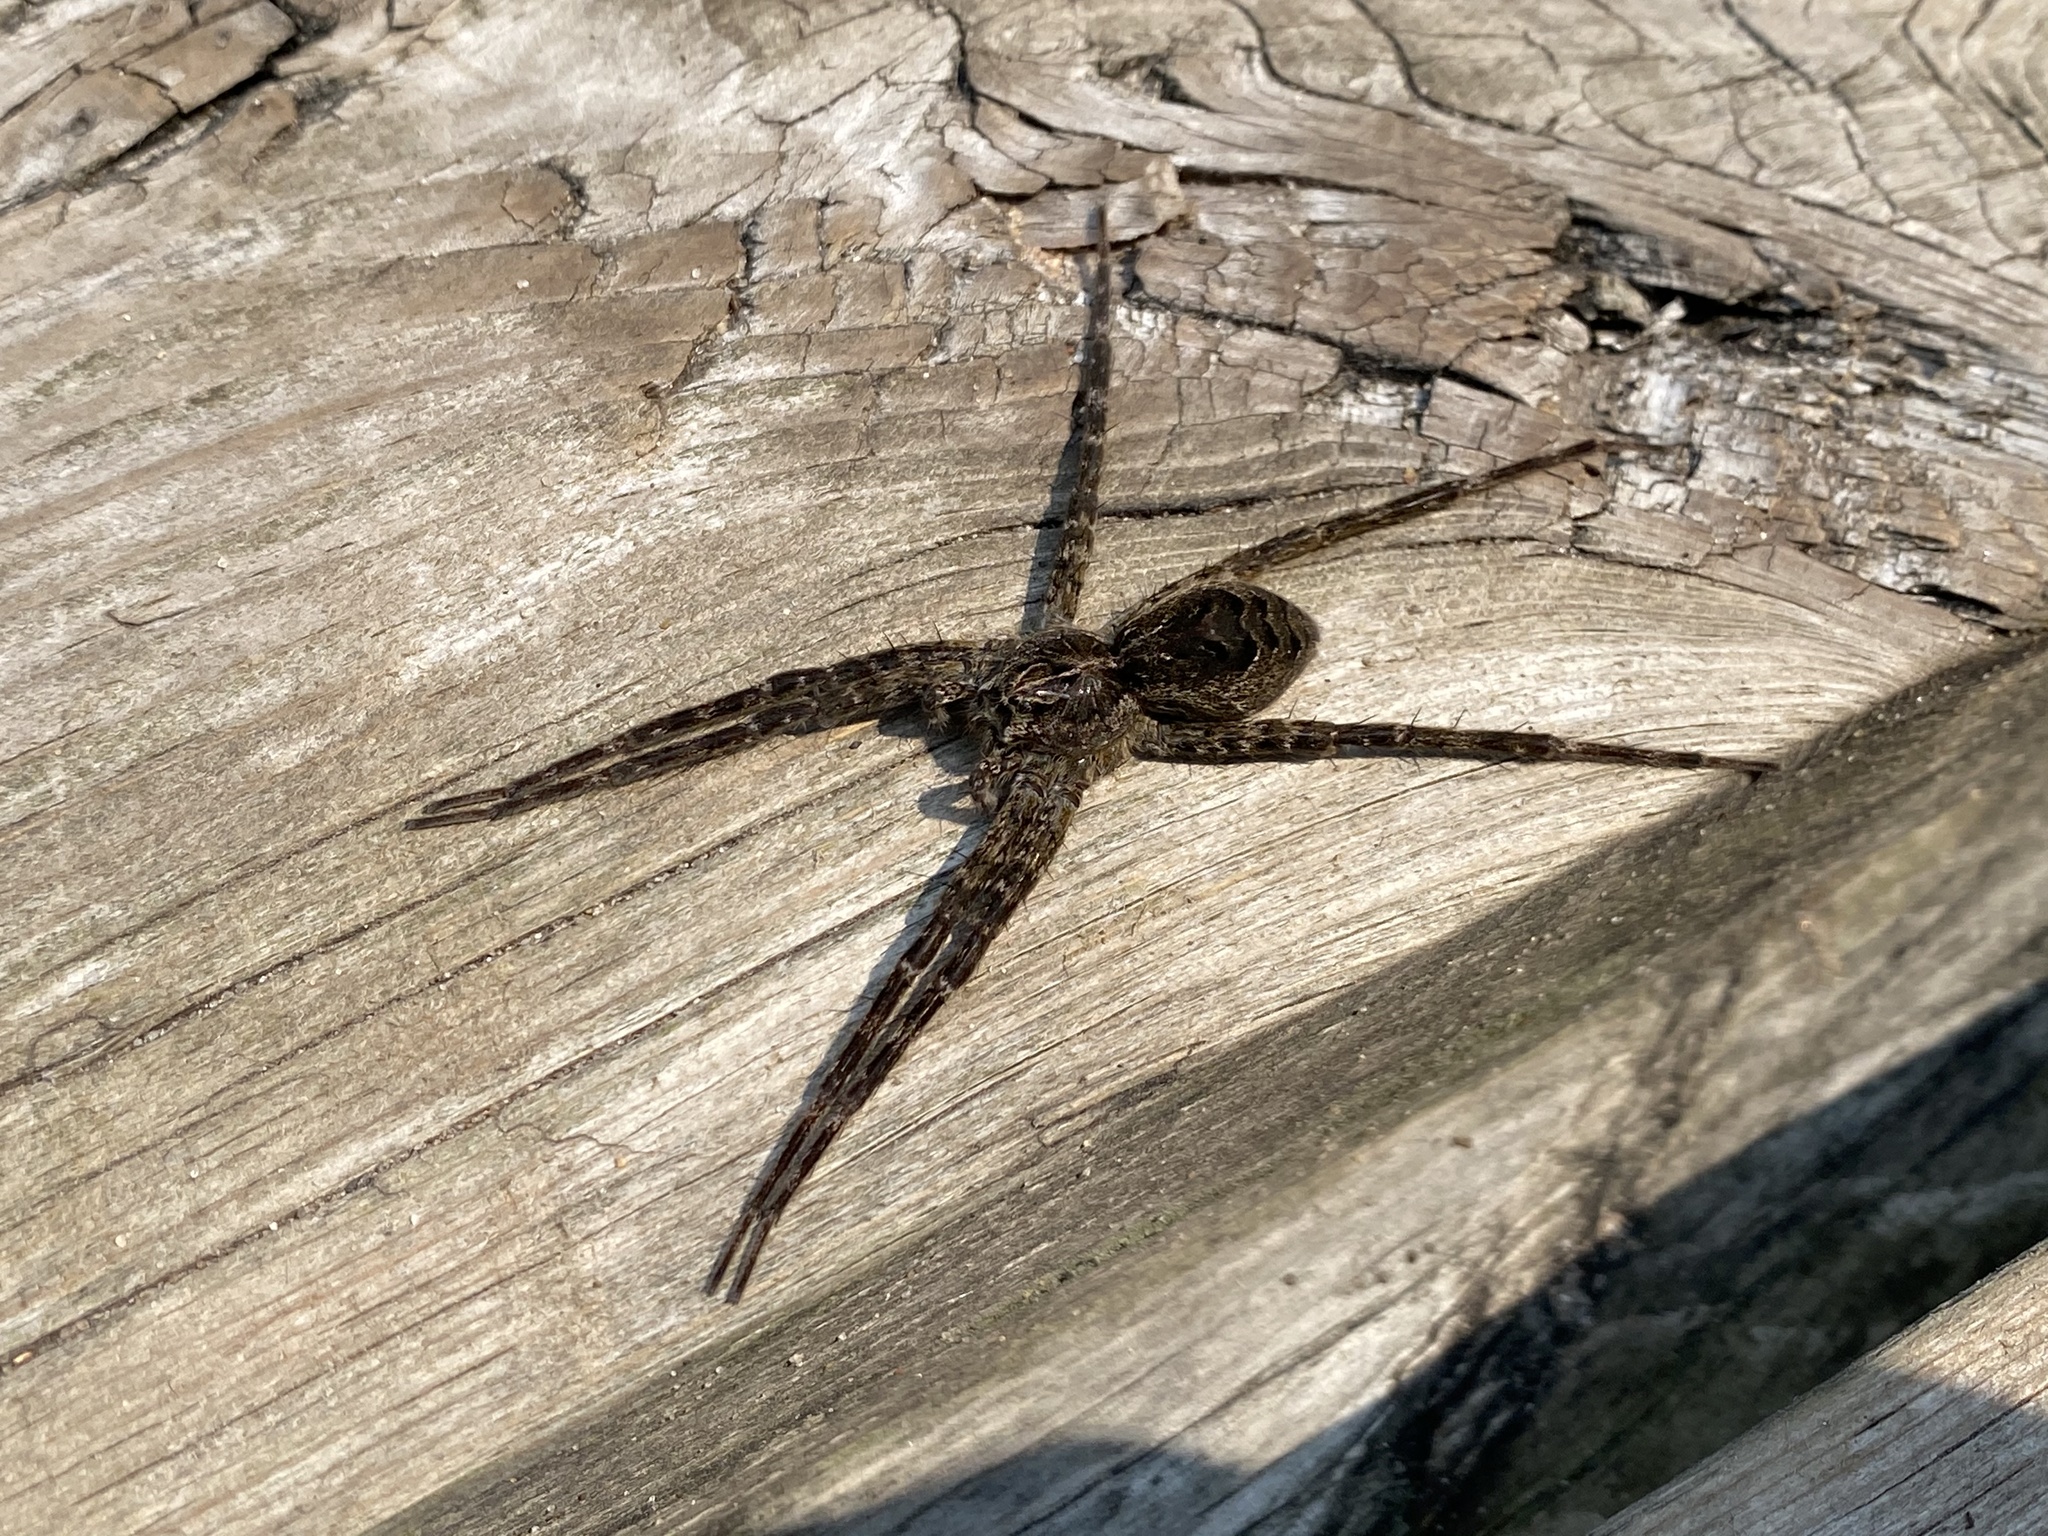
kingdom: Animalia
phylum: Arthropoda
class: Arachnida
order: Araneae
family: Pisauridae
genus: Dolomedes
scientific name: Dolomedes scriptus
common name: Striped fishing spider
